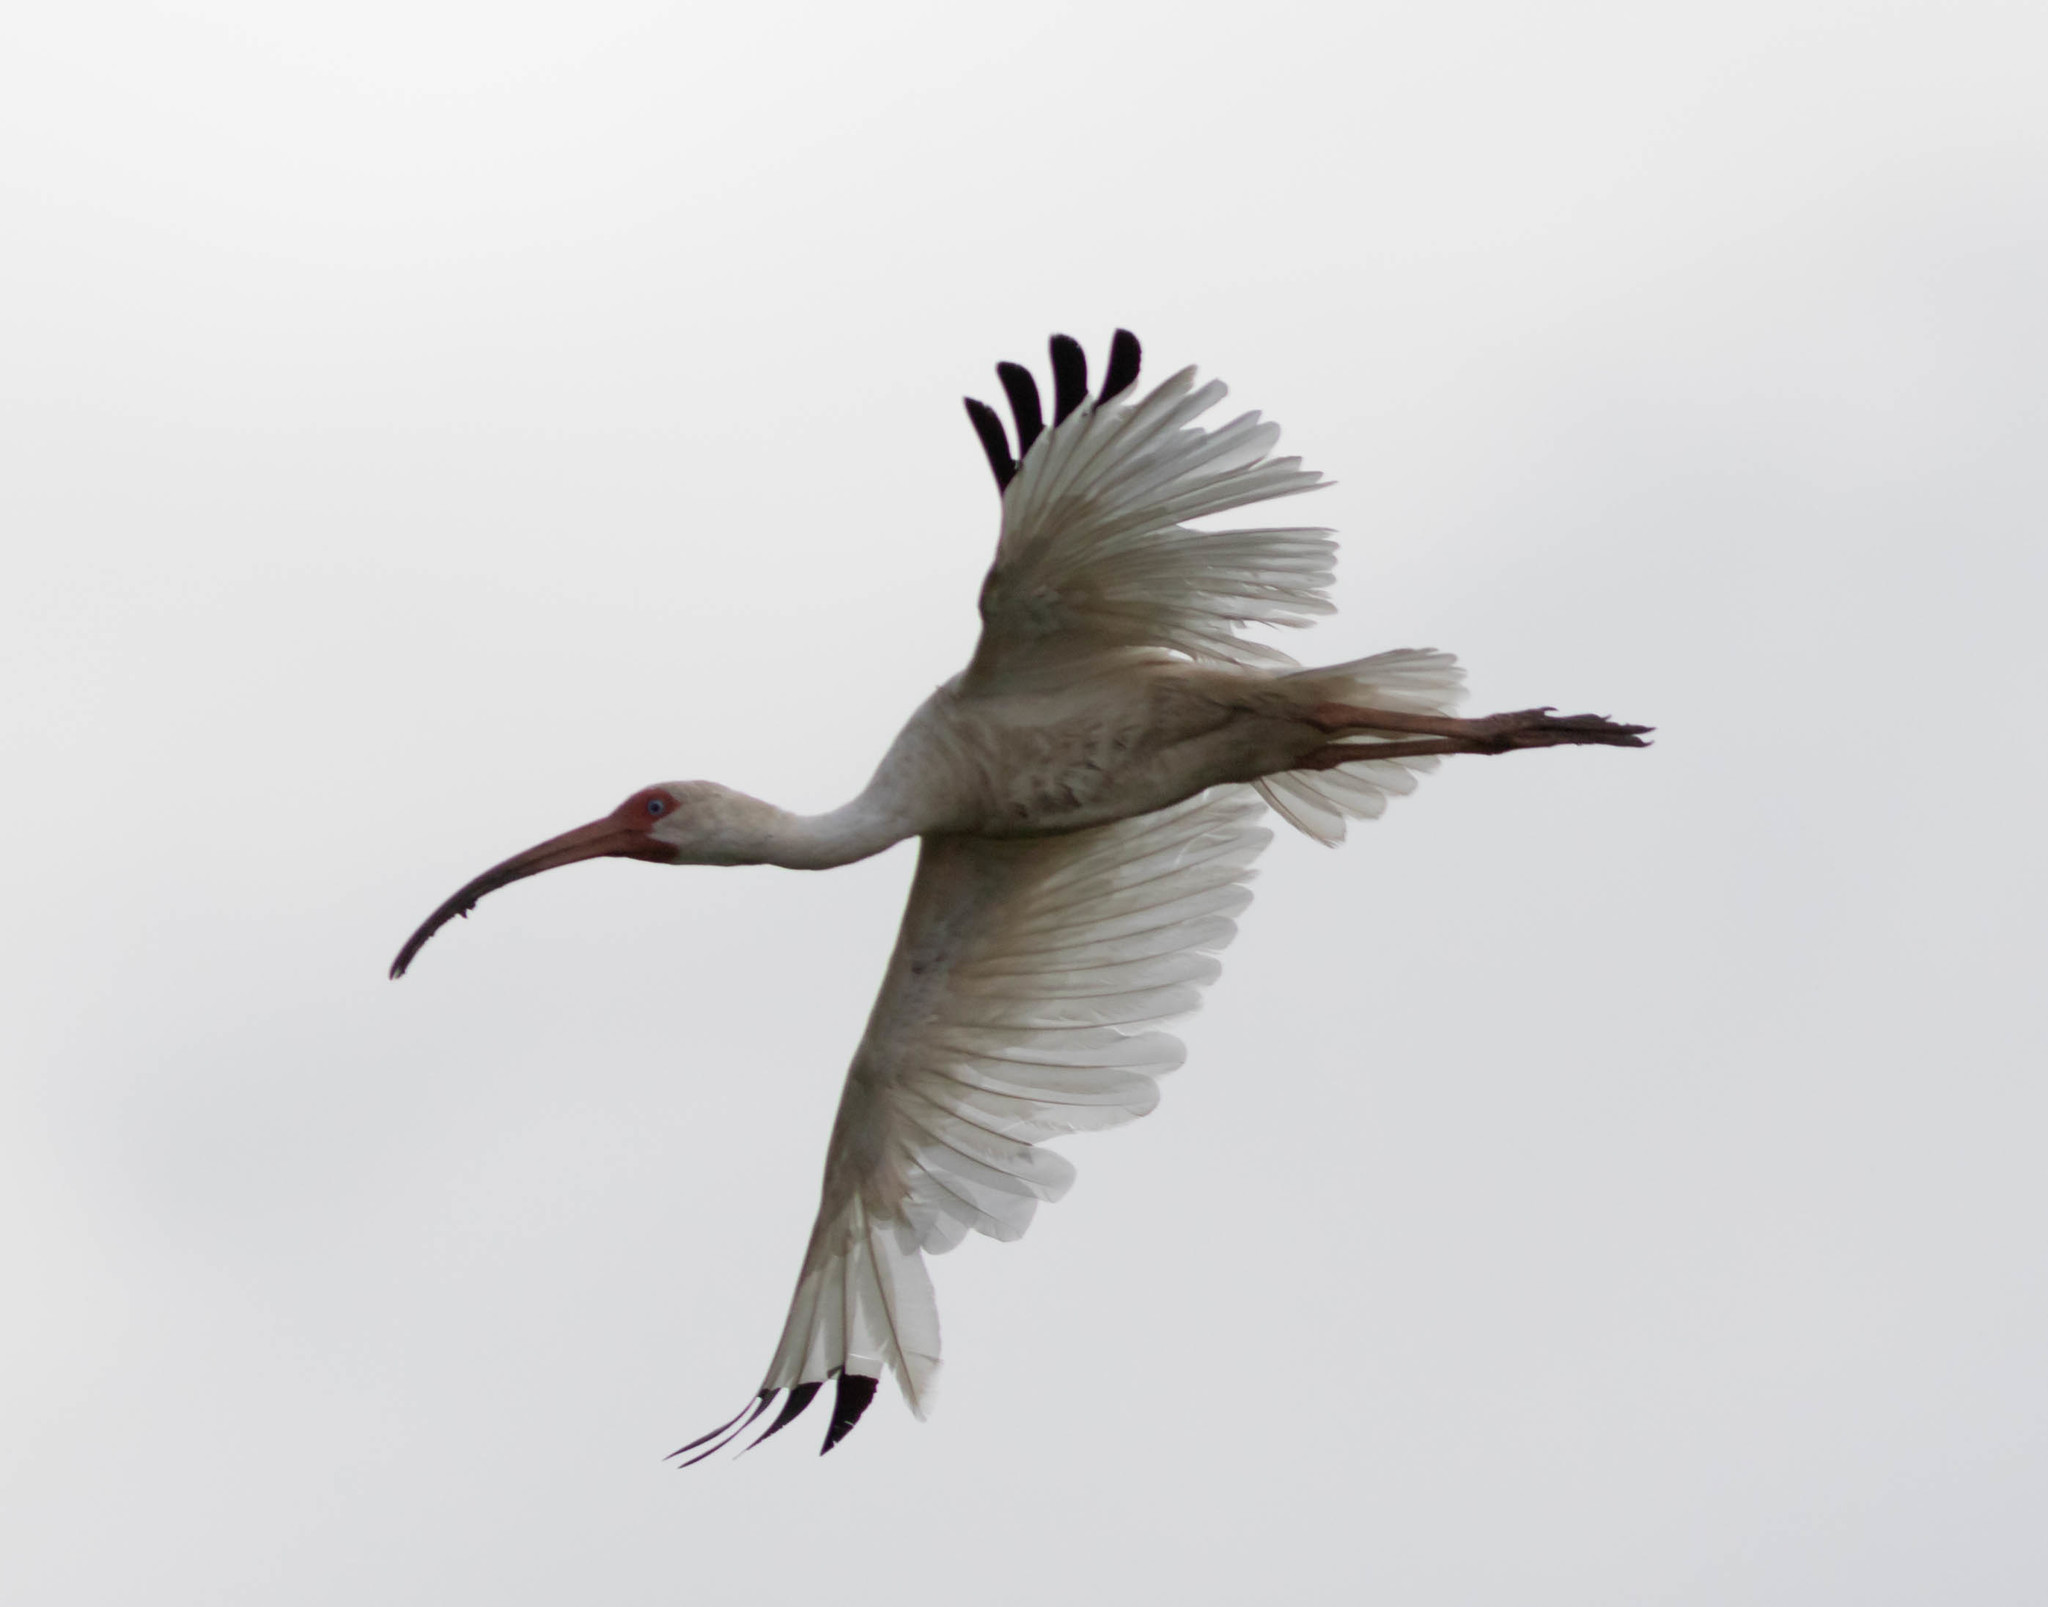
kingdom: Animalia
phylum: Chordata
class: Aves
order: Pelecaniformes
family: Threskiornithidae
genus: Eudocimus
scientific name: Eudocimus albus
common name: White ibis
